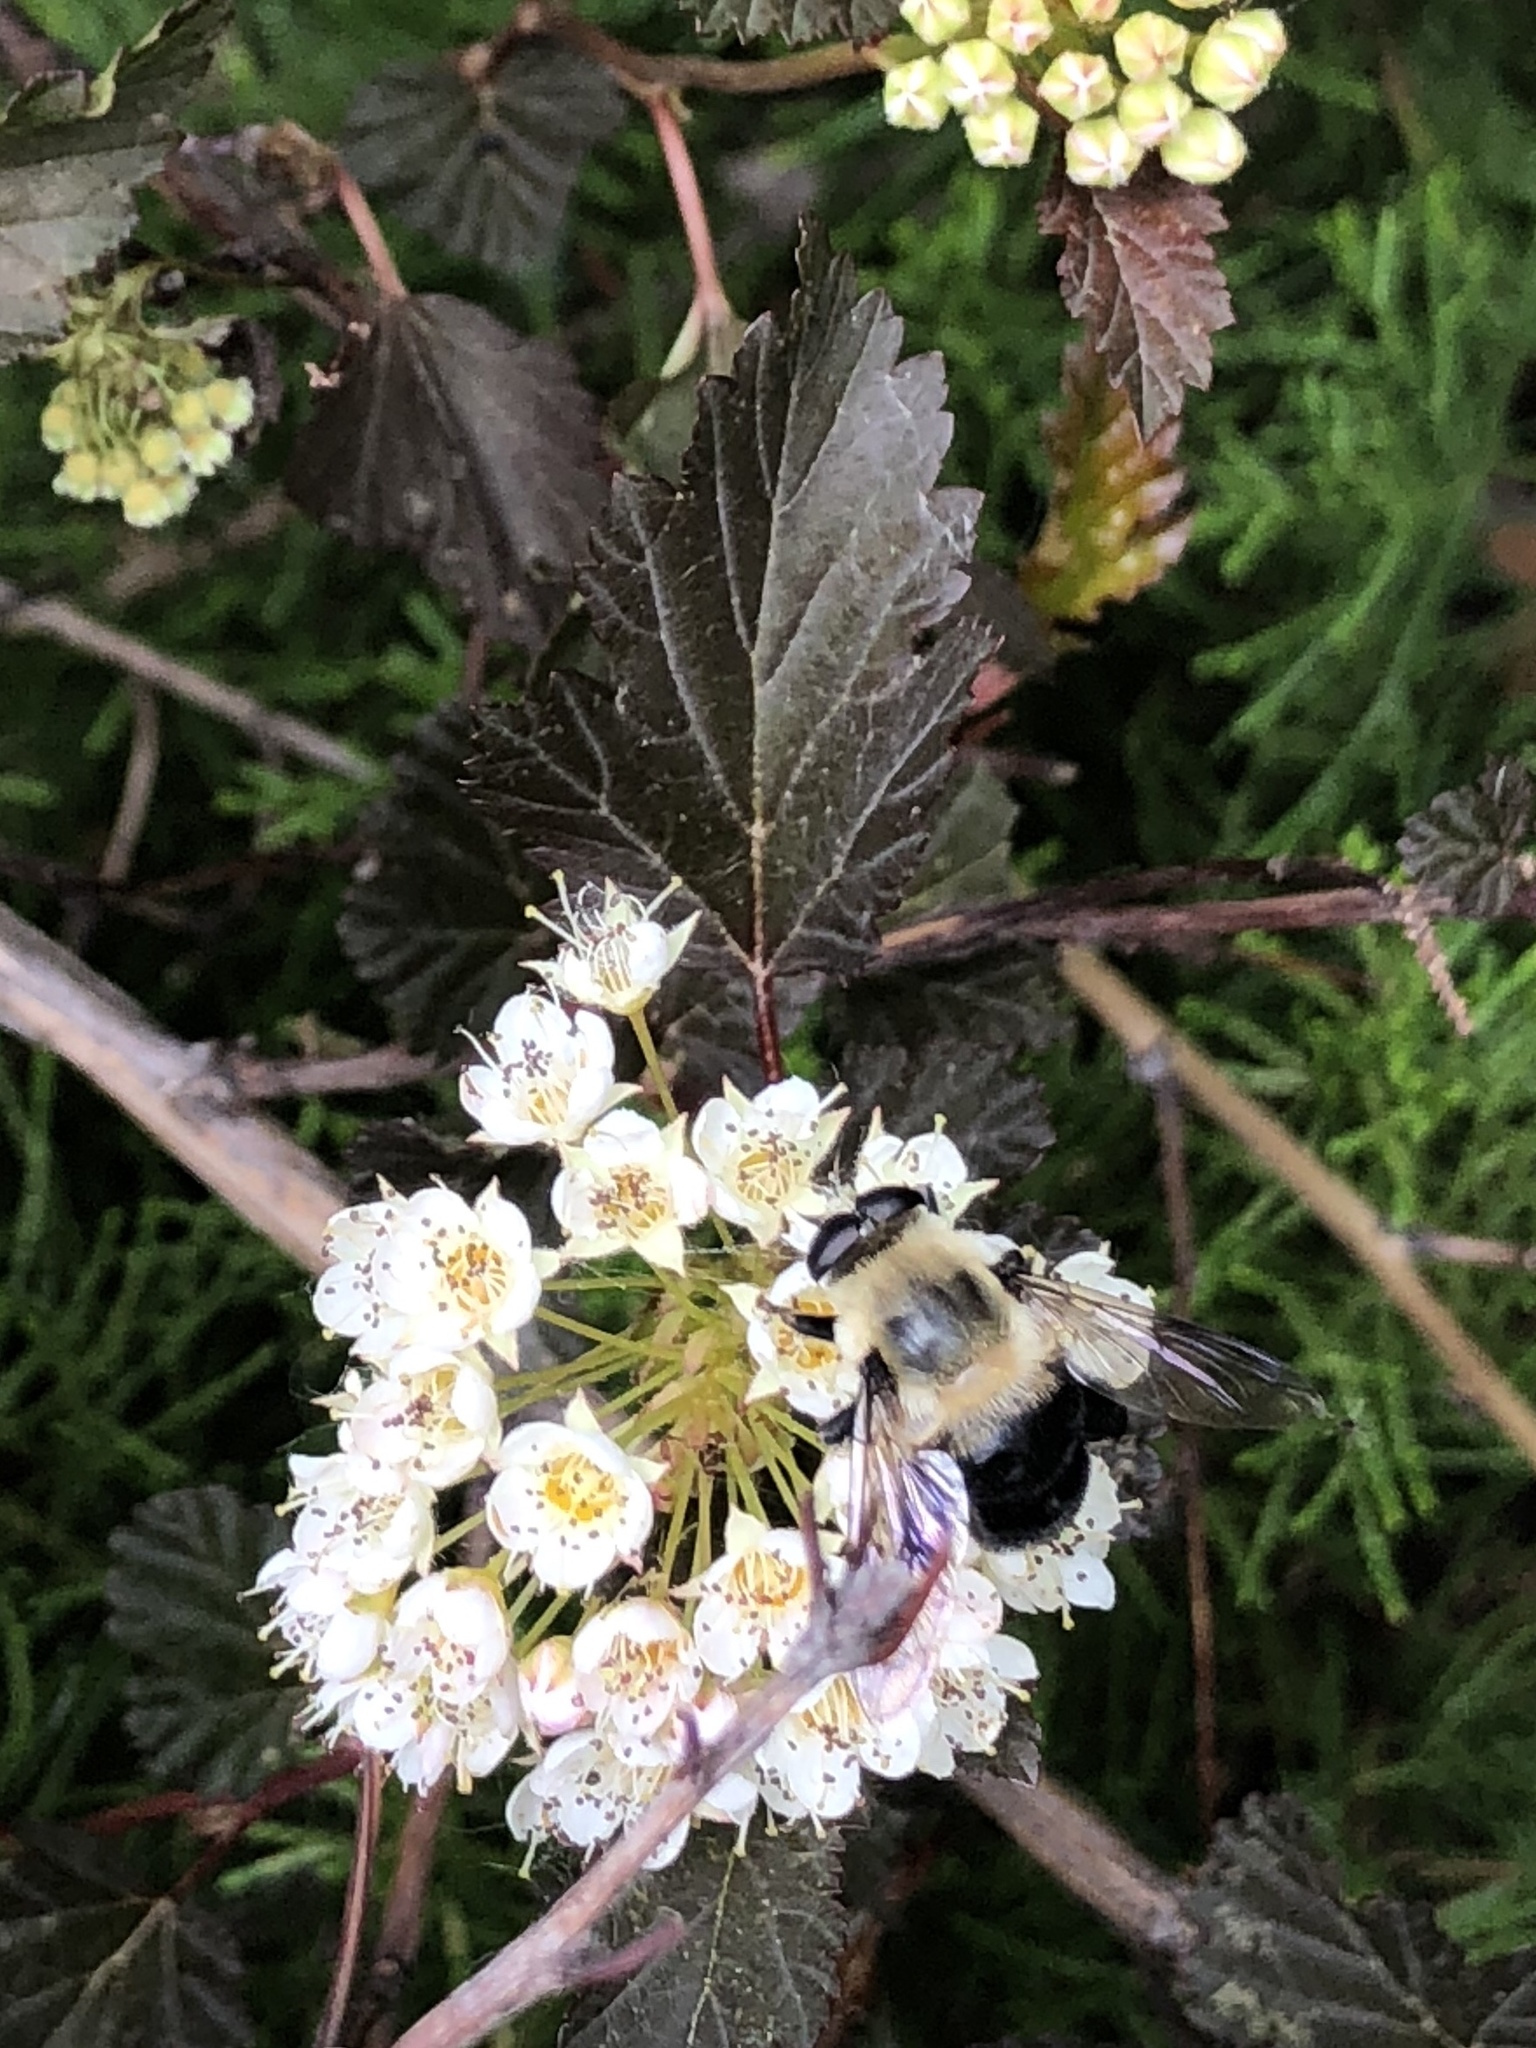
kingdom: Animalia
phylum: Arthropoda
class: Insecta
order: Diptera
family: Syrphidae
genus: Imatisma
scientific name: Imatisma bautias
